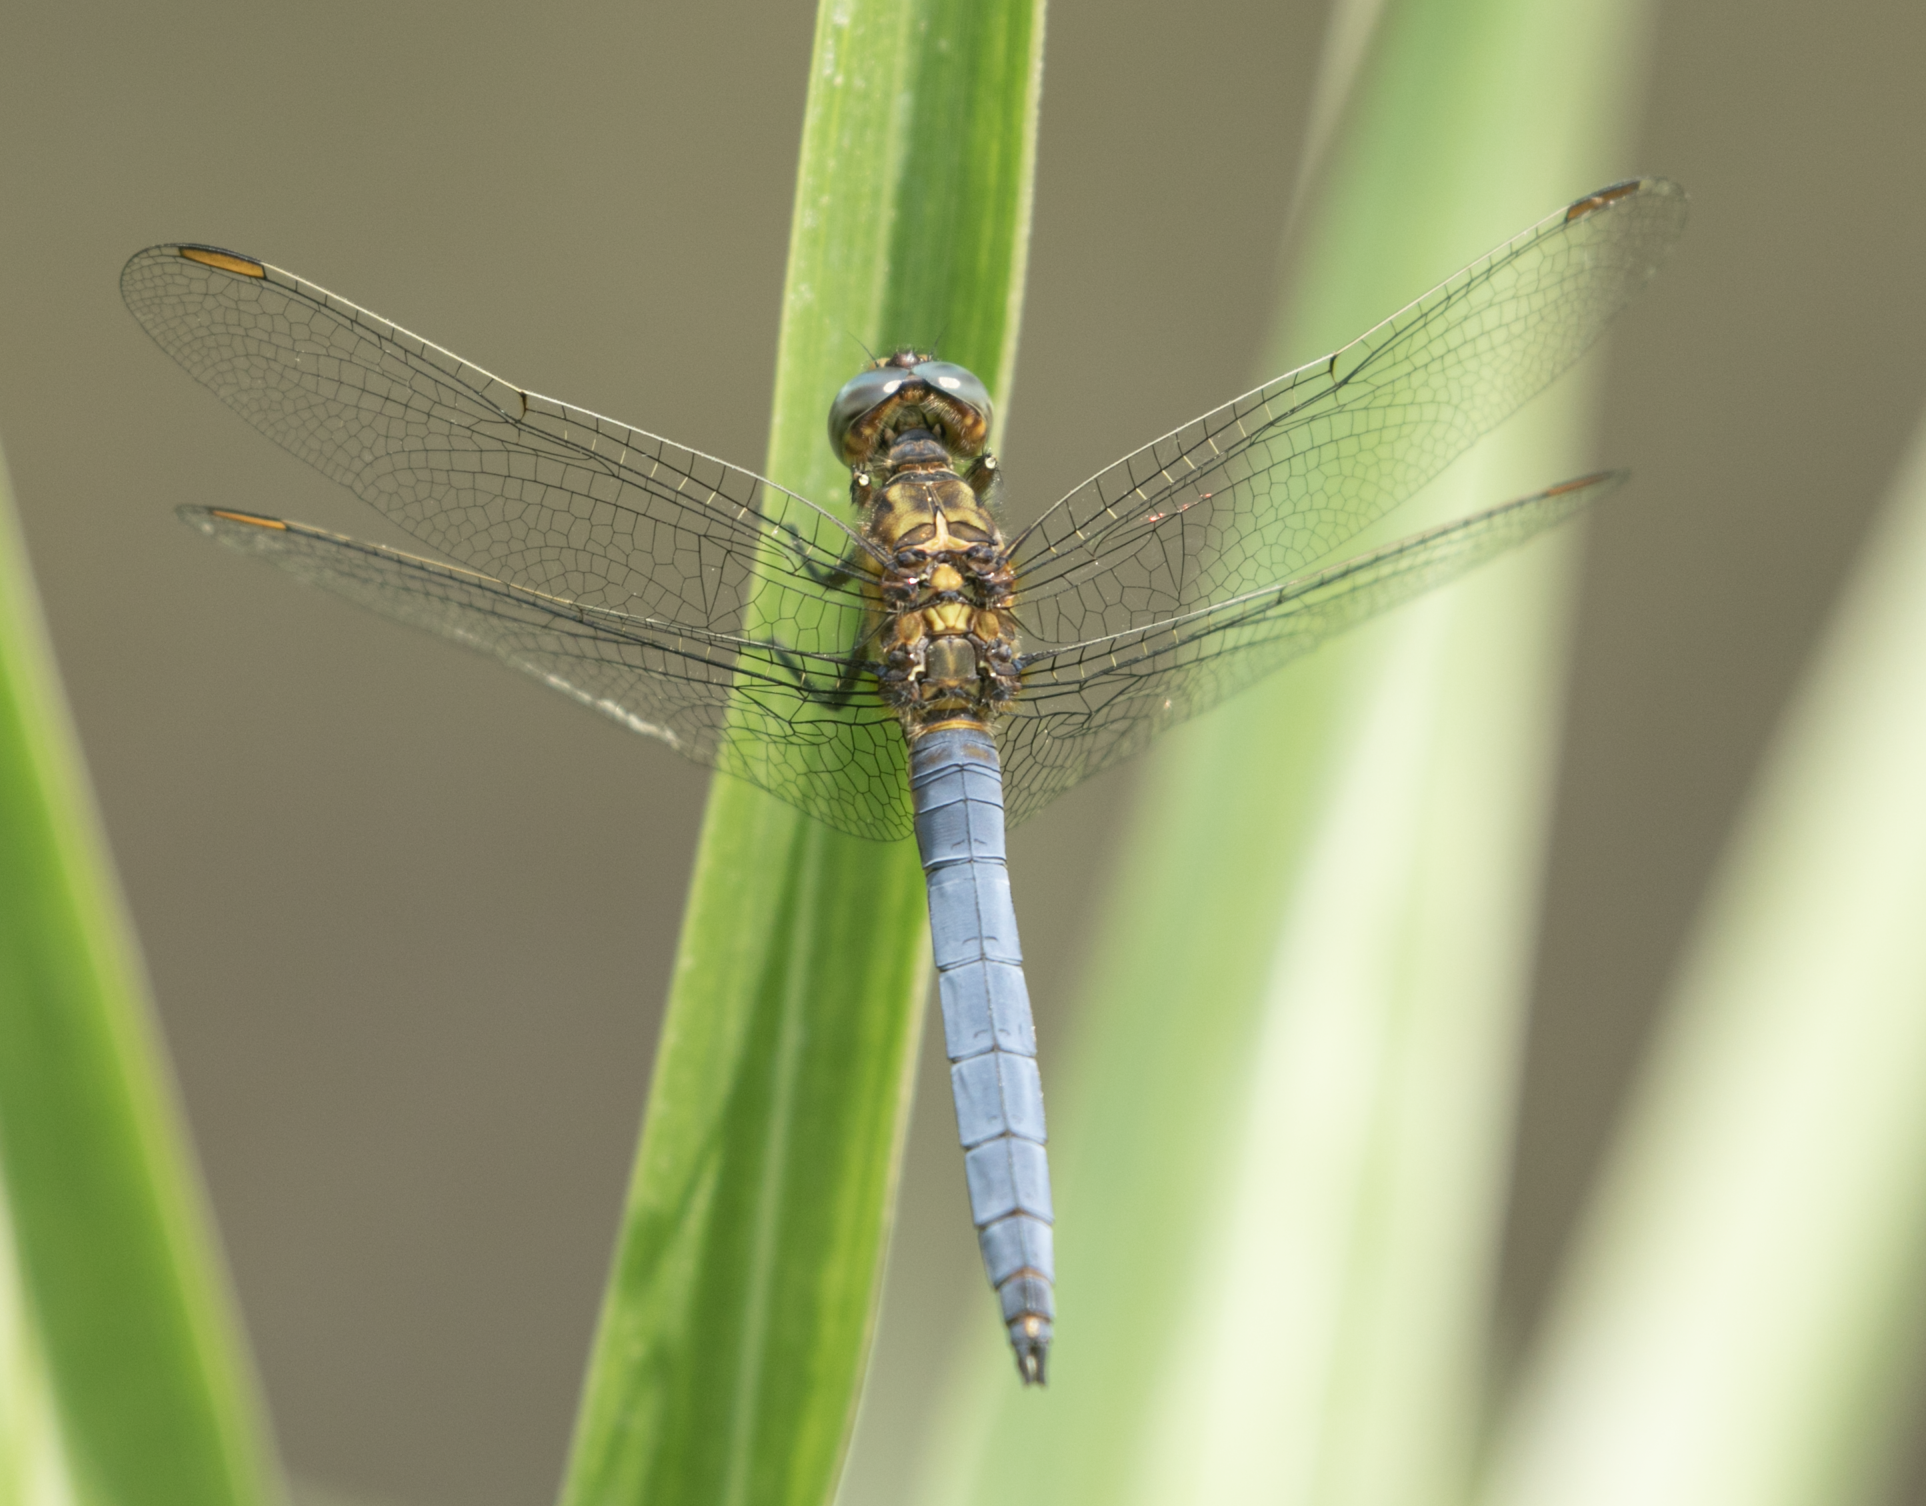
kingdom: Animalia
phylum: Arthropoda
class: Insecta
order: Odonata
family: Libellulidae
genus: Orthetrum
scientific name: Orthetrum coerulescens
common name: Keeled skimmer
